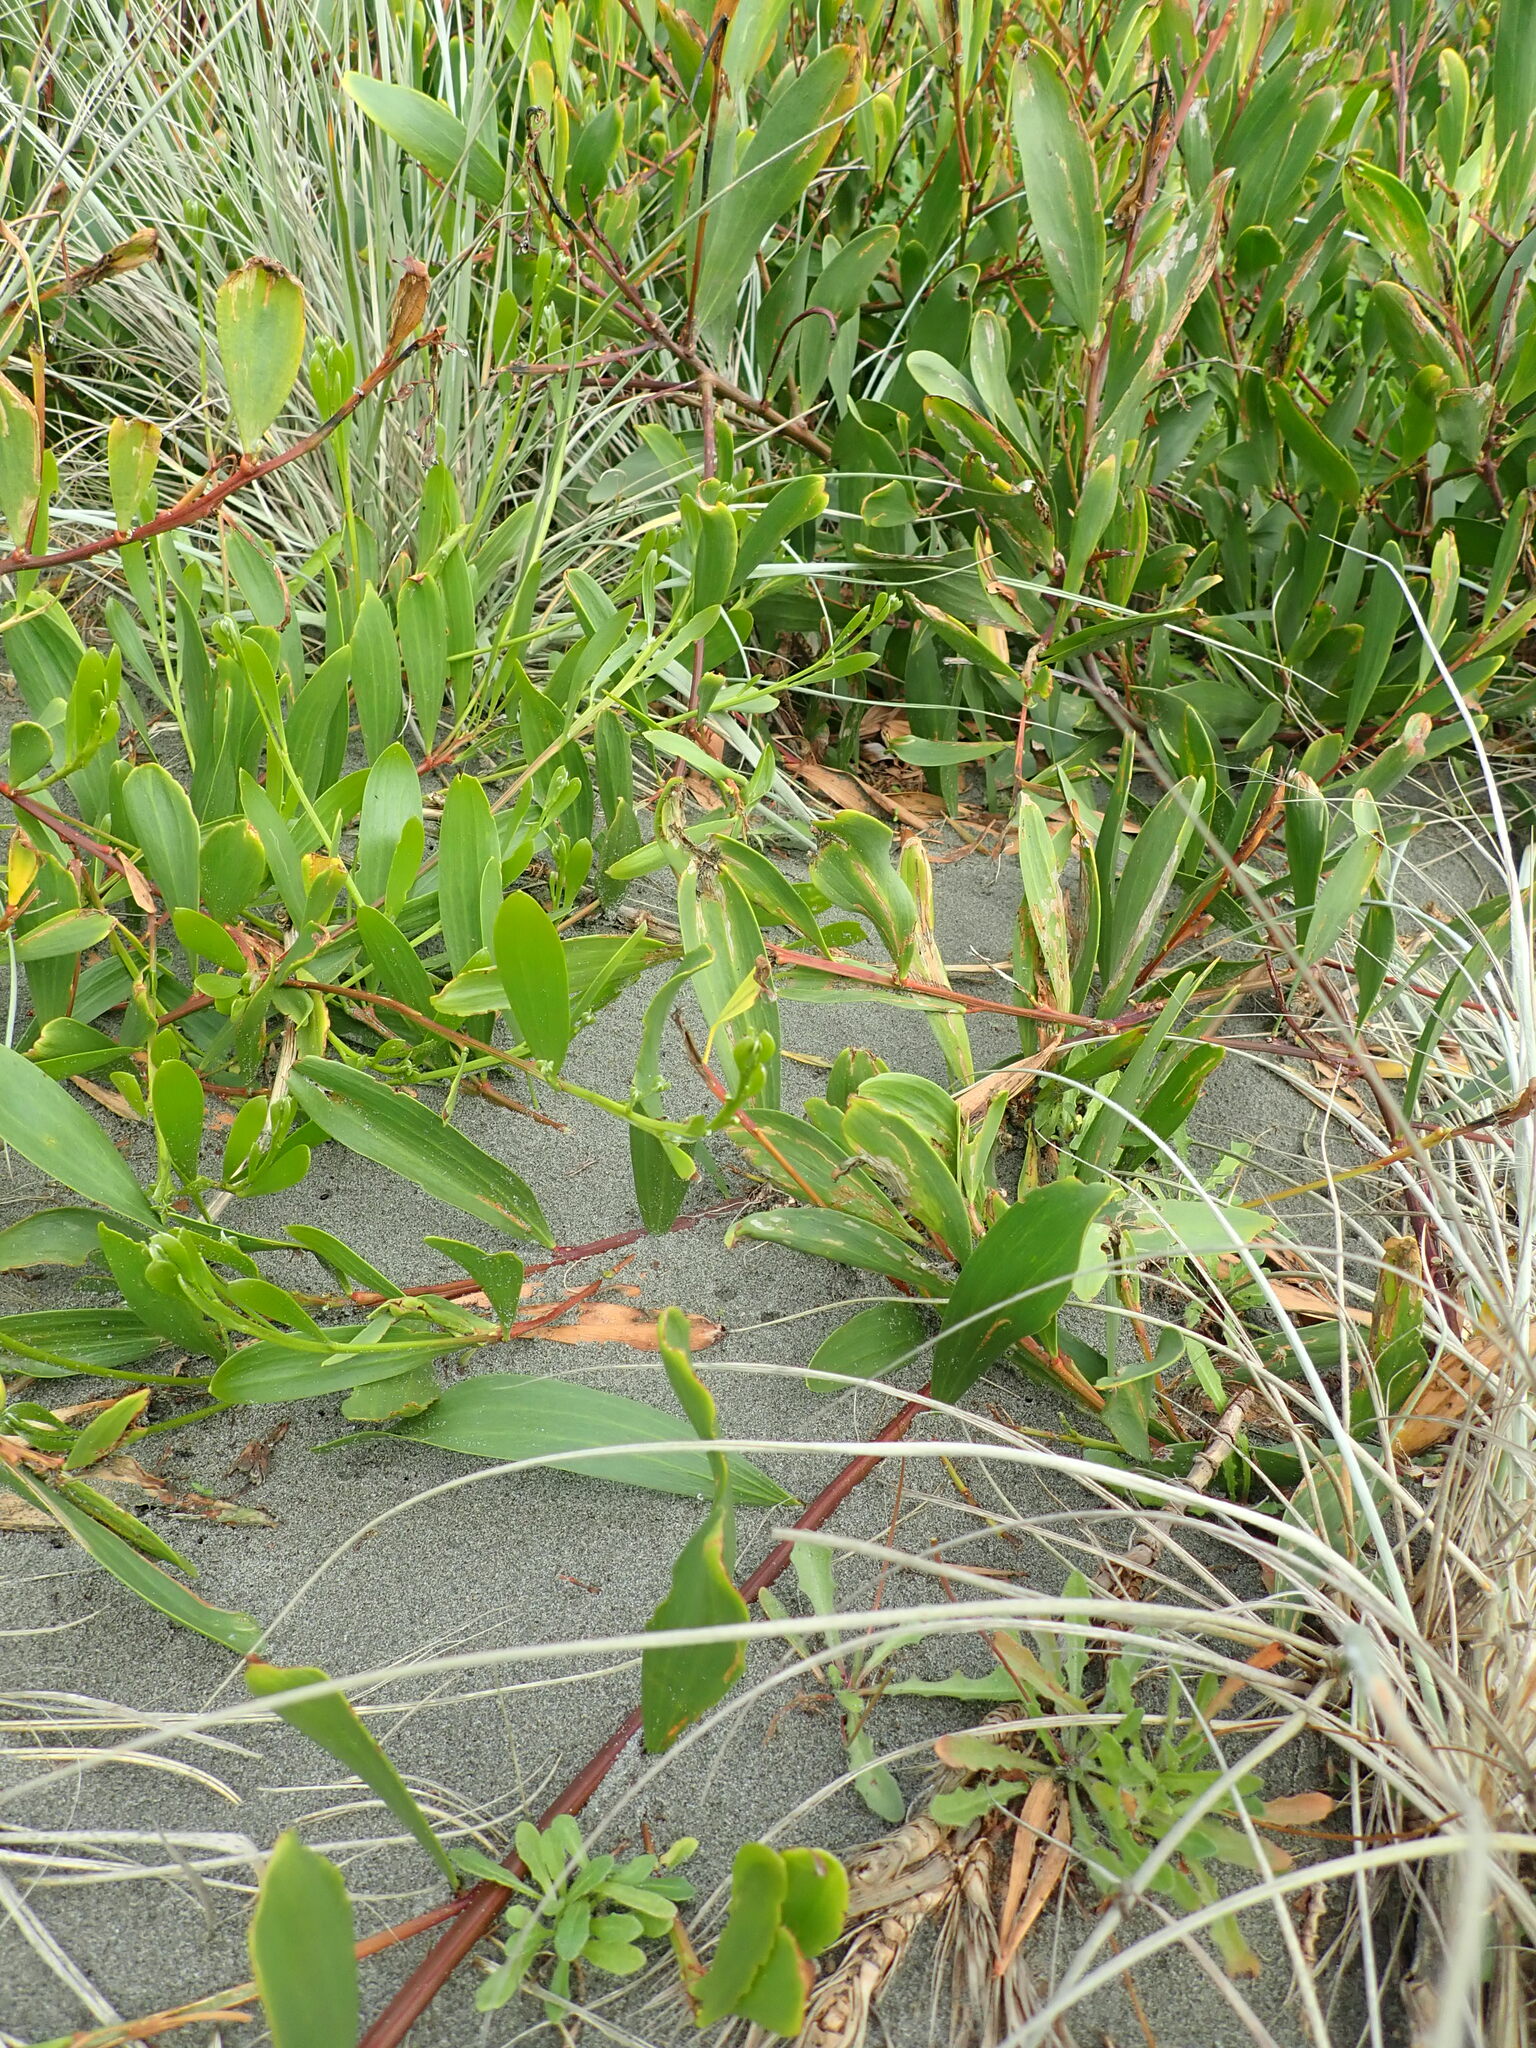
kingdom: Plantae
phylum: Tracheophyta
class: Magnoliopsida
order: Fabales
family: Fabaceae
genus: Acacia
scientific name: Acacia longifolia
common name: Sydney golden wattle
